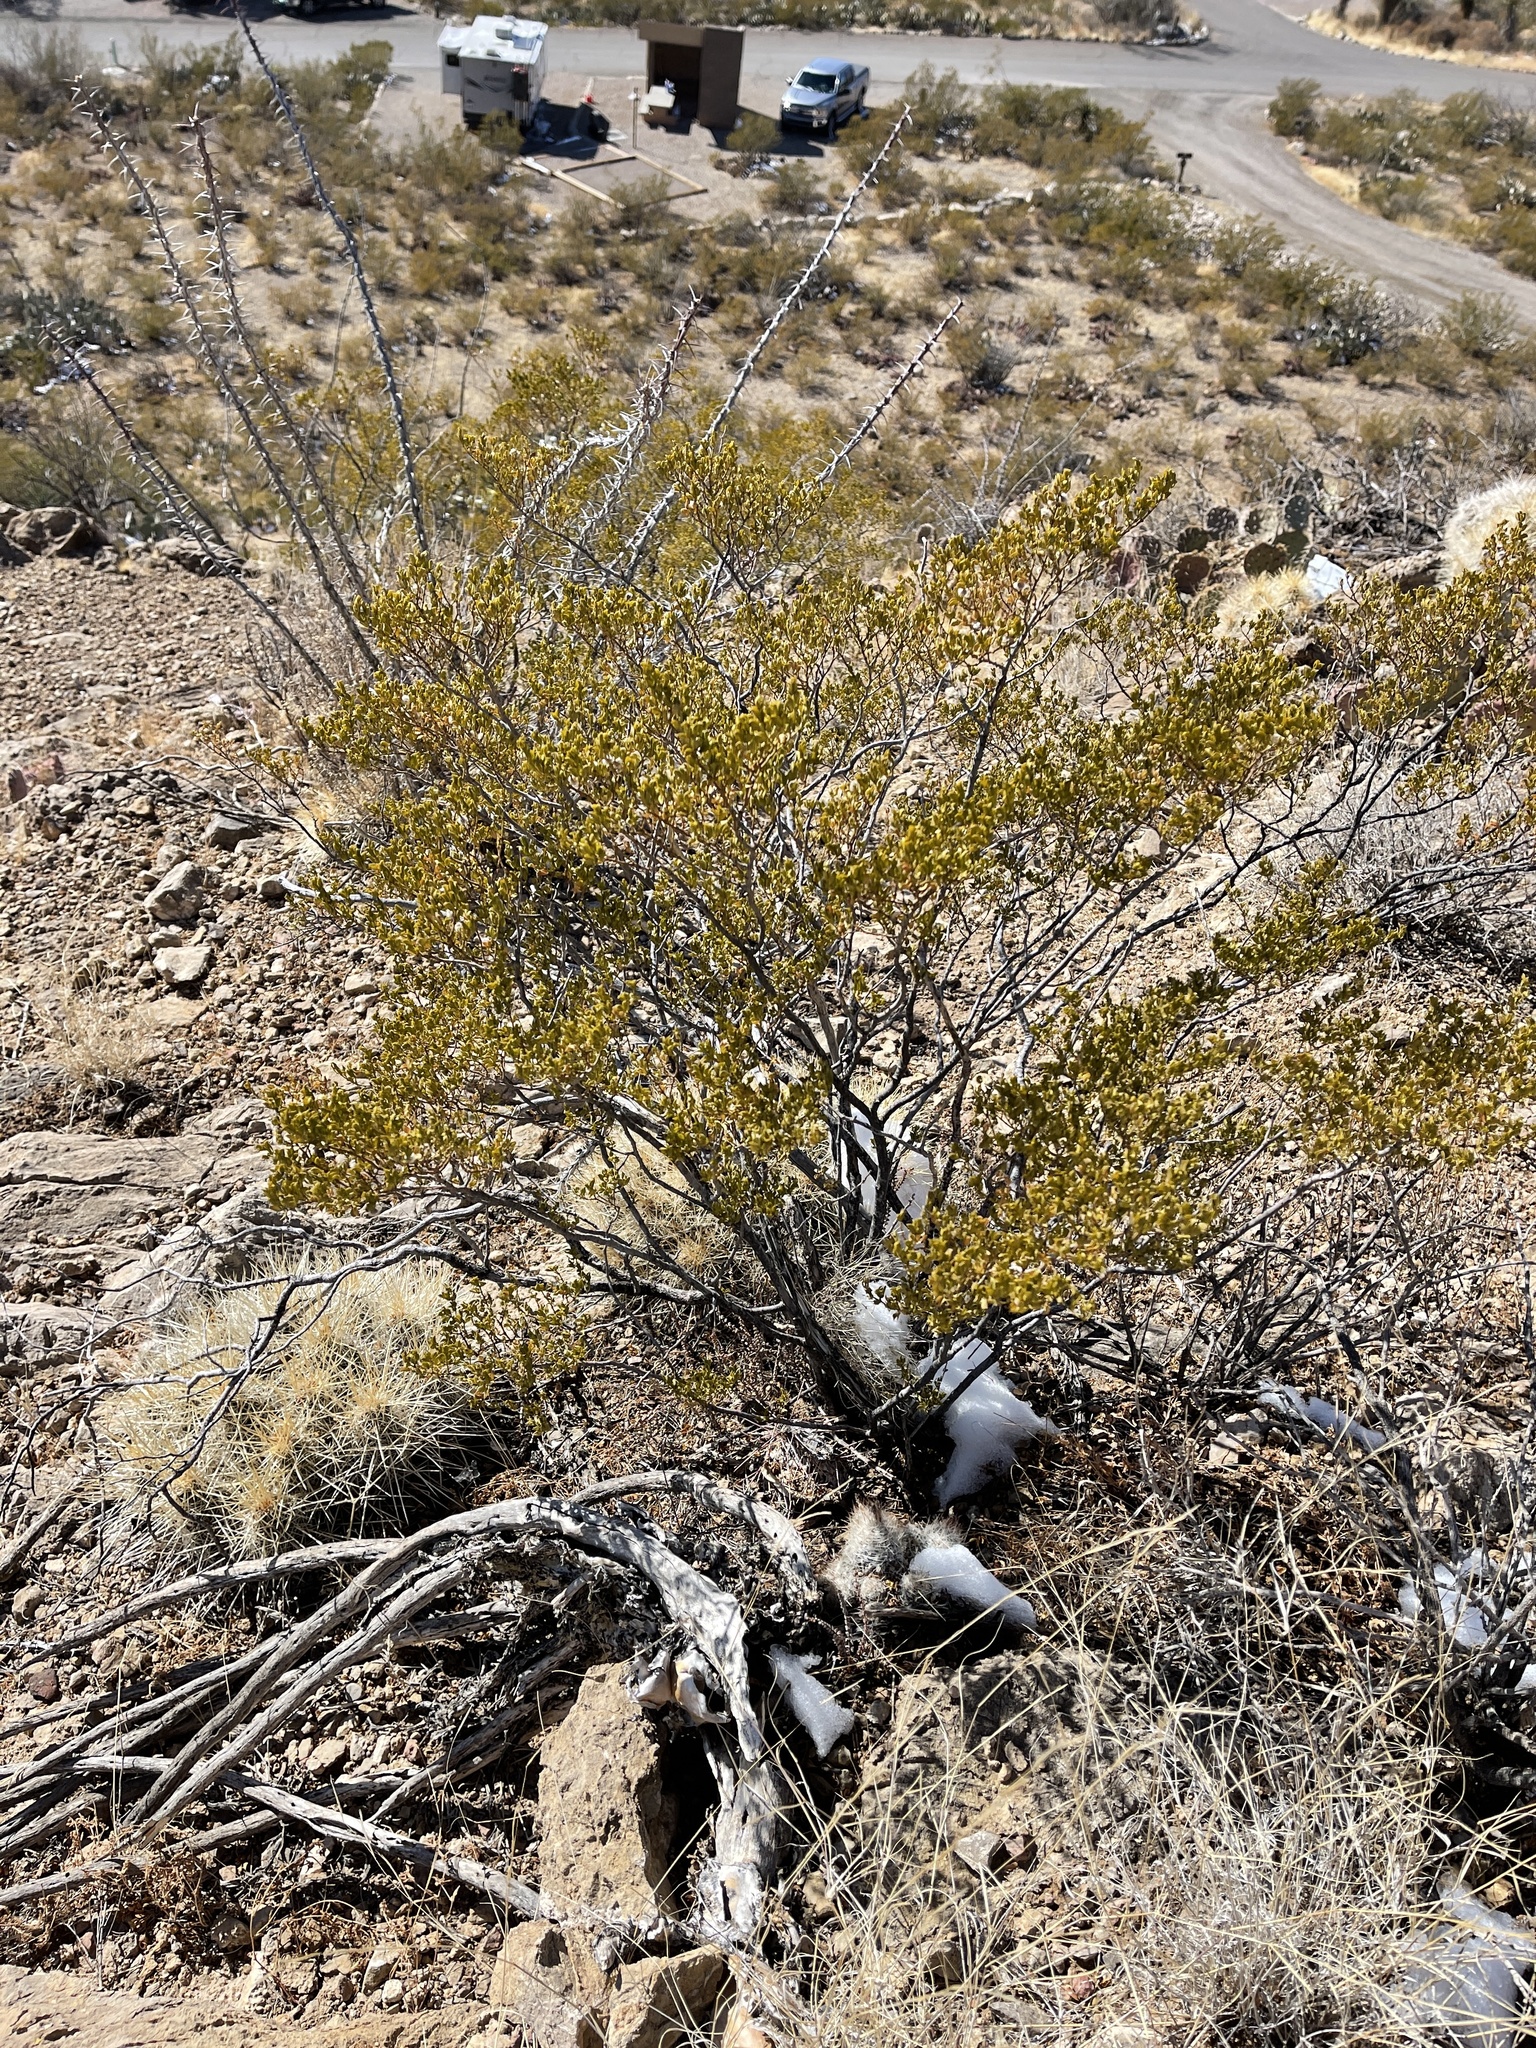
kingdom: Plantae
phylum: Tracheophyta
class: Magnoliopsida
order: Zygophyllales
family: Zygophyllaceae
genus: Larrea
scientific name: Larrea tridentata
